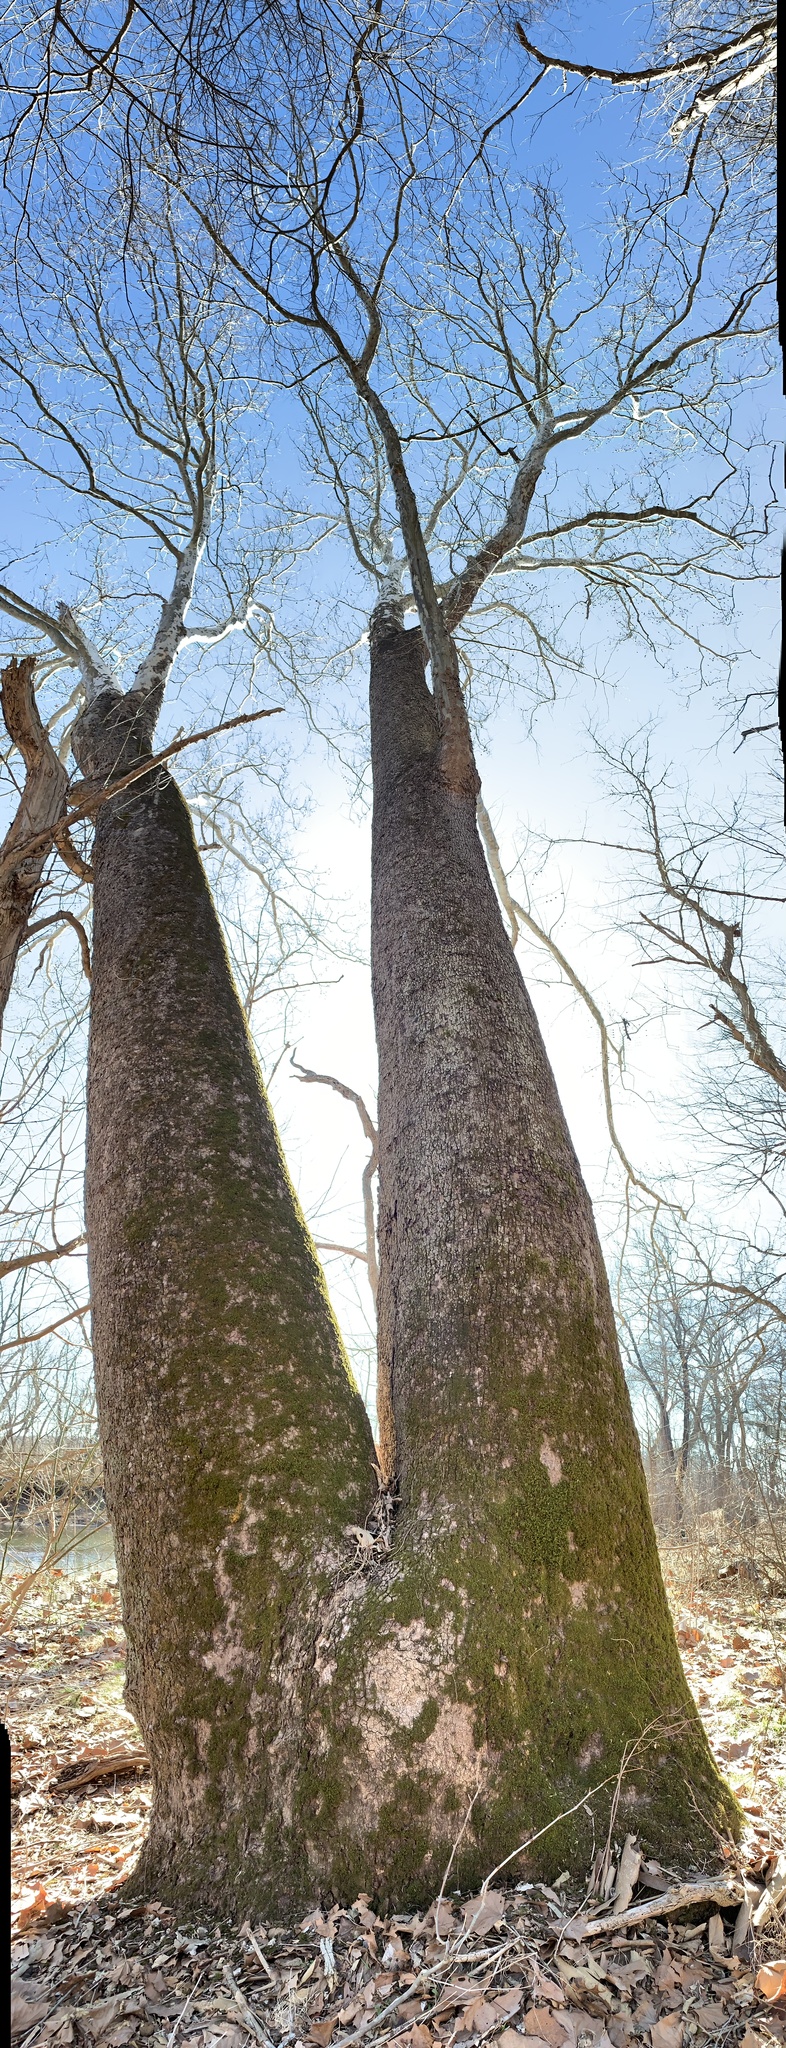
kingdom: Plantae
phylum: Tracheophyta
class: Magnoliopsida
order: Proteales
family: Platanaceae
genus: Platanus
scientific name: Platanus occidentalis
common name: American sycamore
